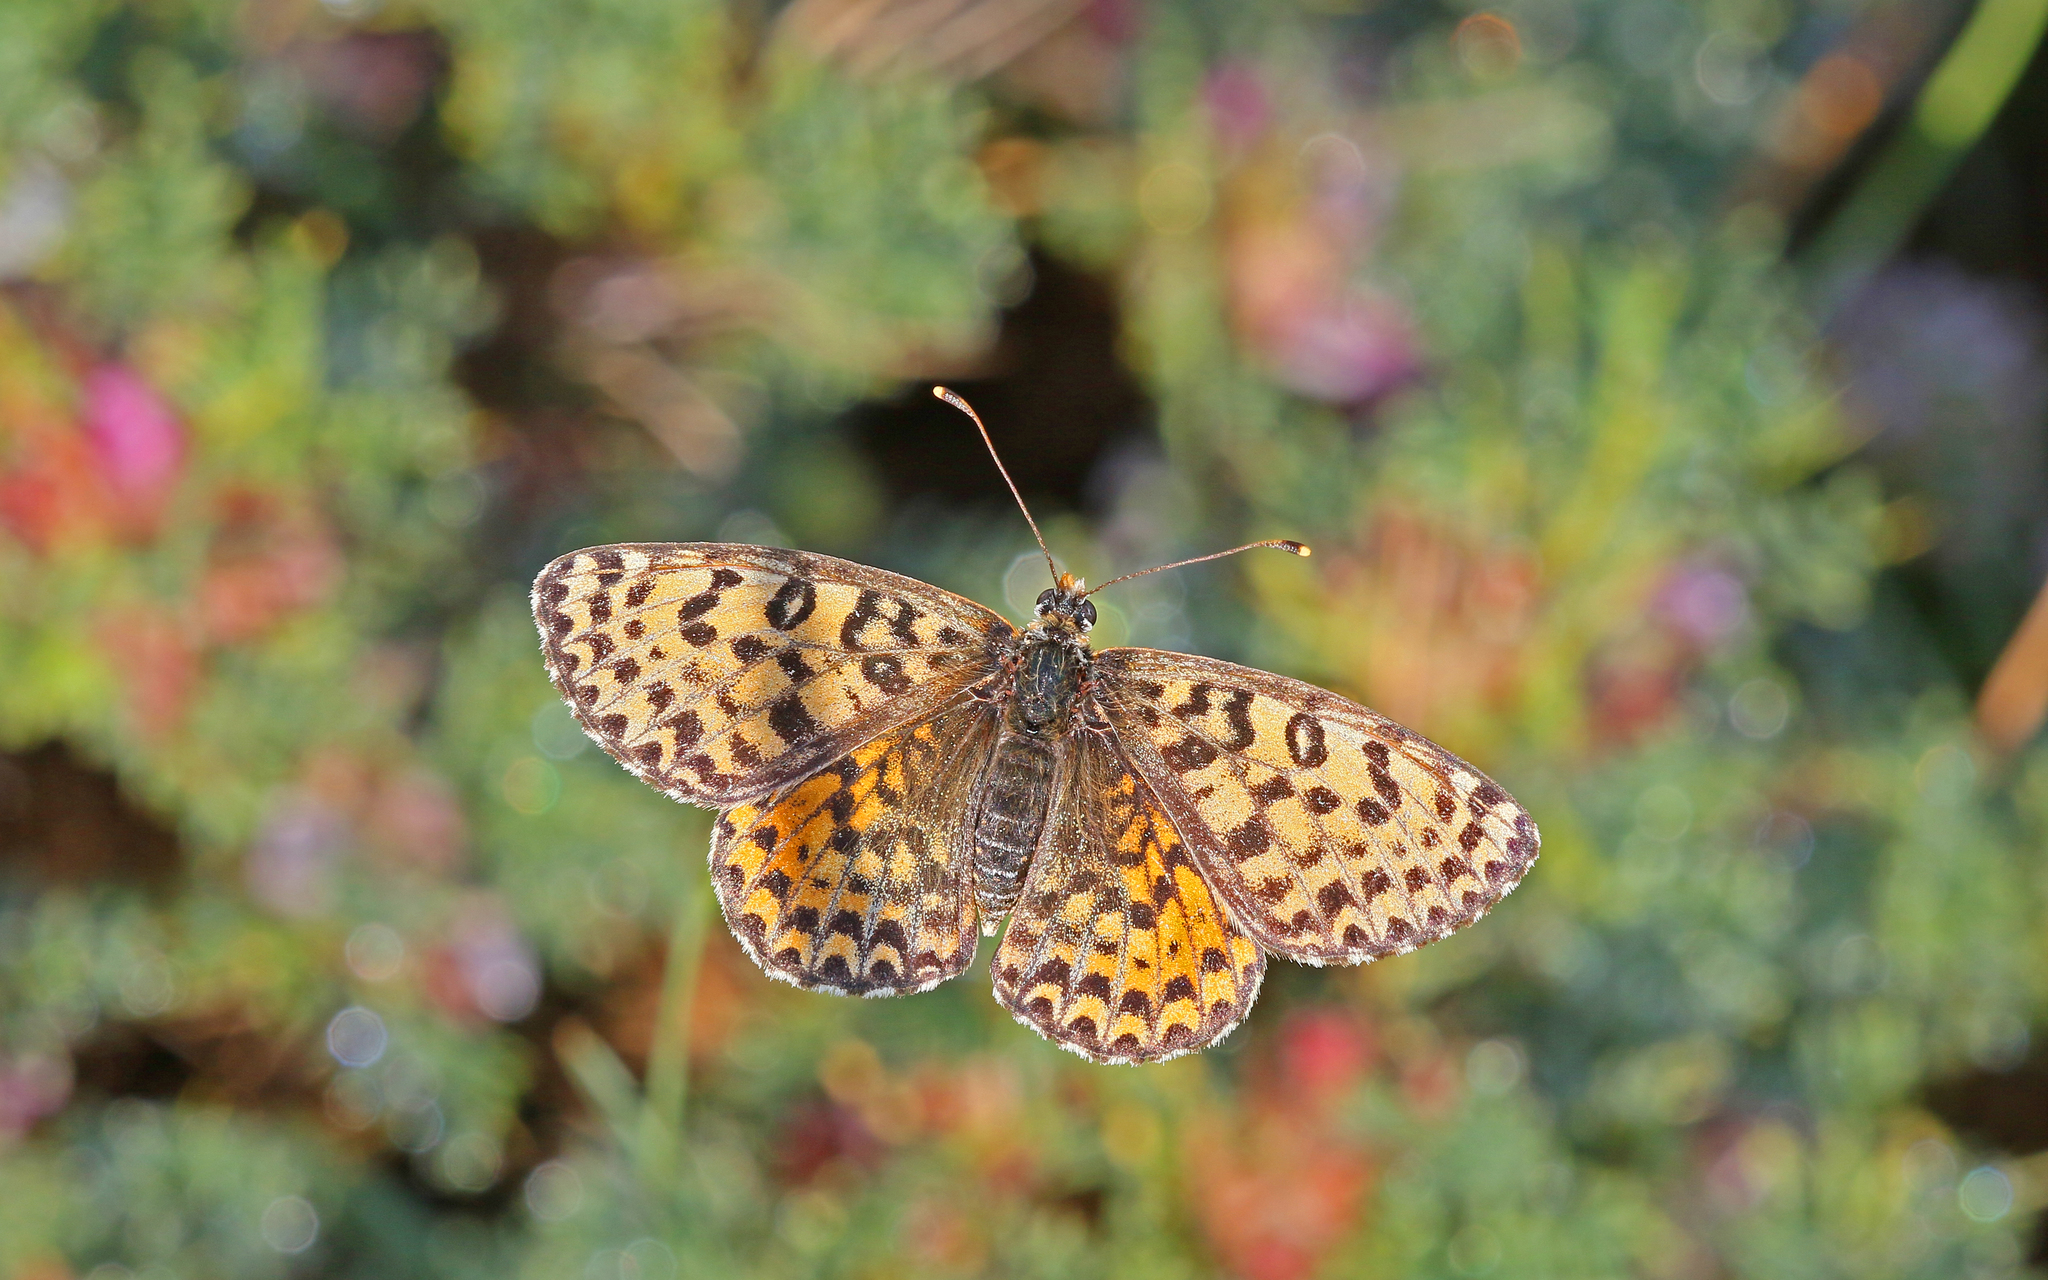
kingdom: Animalia
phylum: Arthropoda
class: Insecta
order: Lepidoptera
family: Nymphalidae
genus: Melitaea
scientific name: Melitaea didyma
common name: Spotted fritillary
